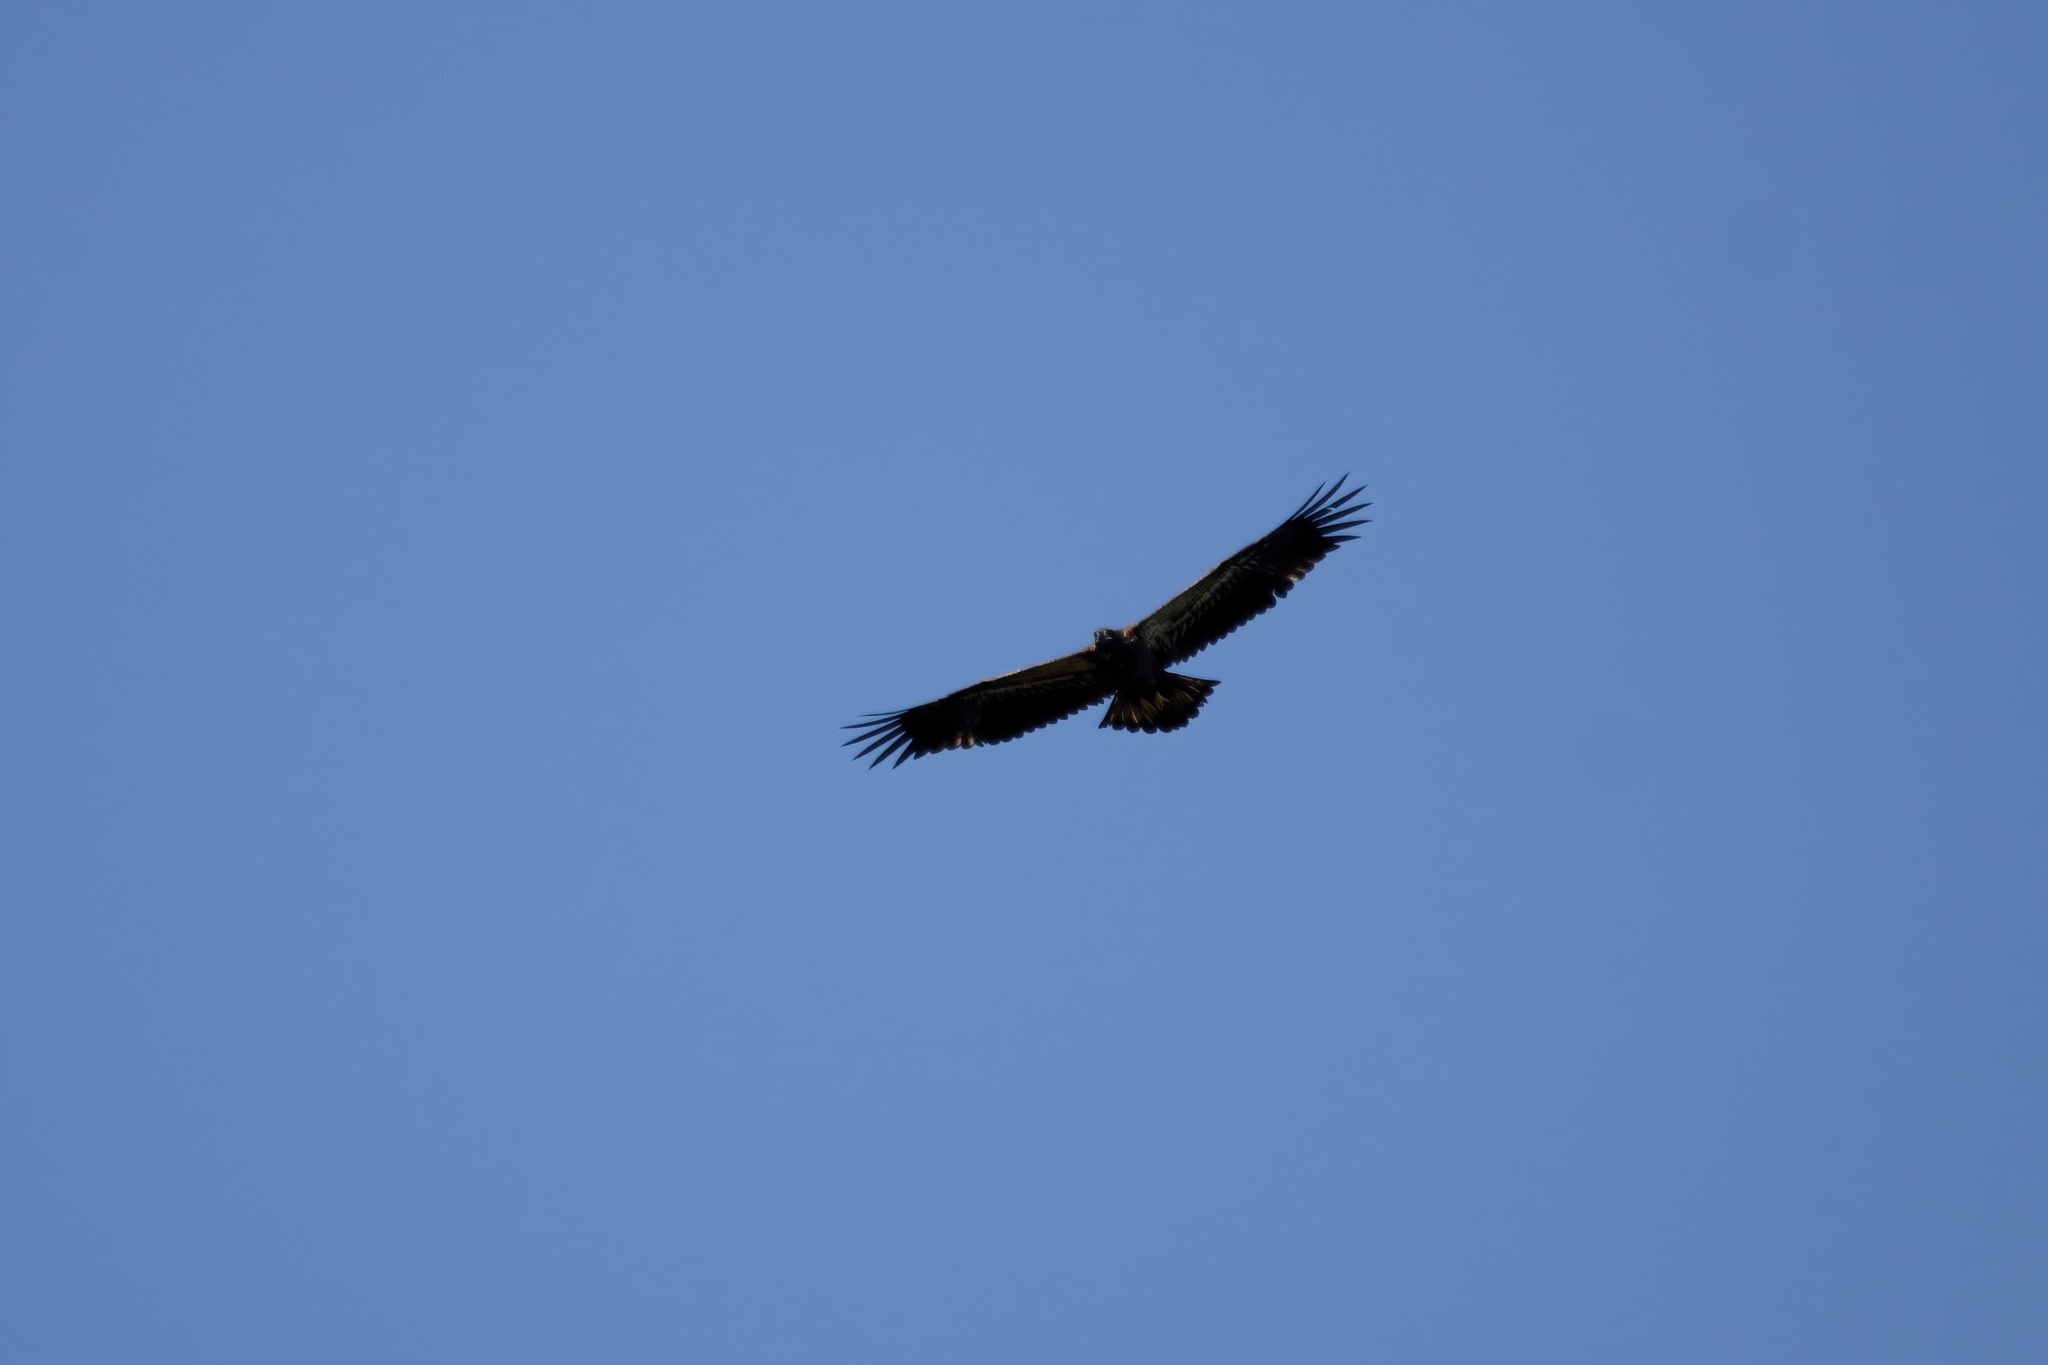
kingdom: Animalia
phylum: Chordata
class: Aves
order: Accipitriformes
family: Accipitridae
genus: Haliaeetus
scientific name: Haliaeetus leucocephalus
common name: Bald eagle
